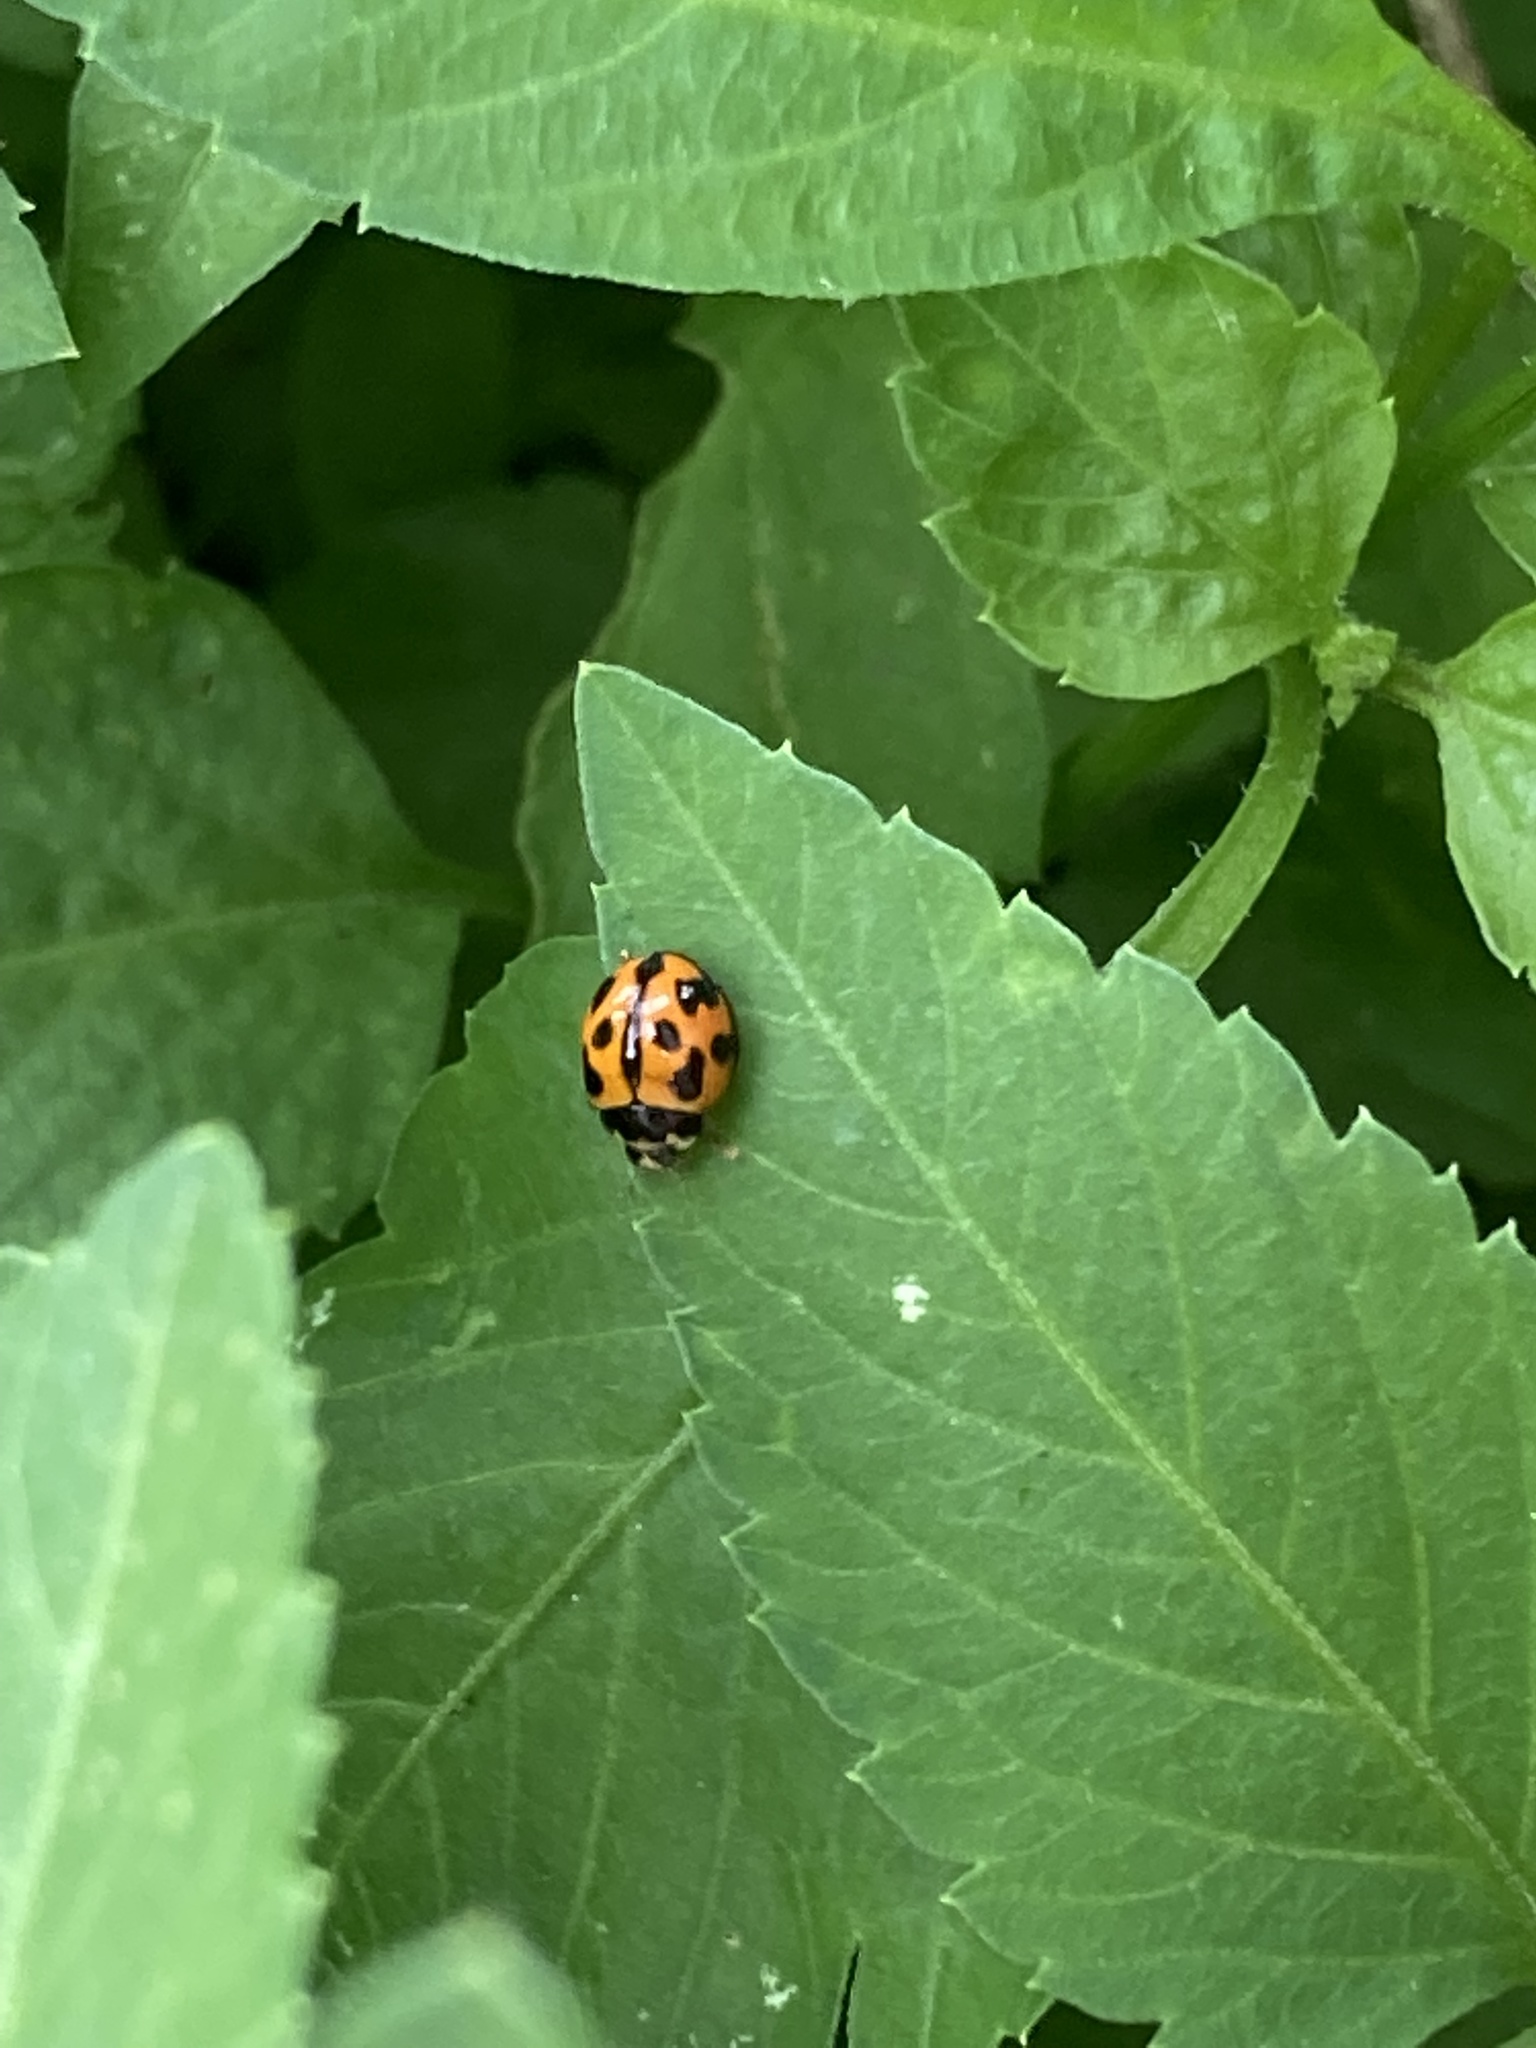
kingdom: Animalia
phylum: Arthropoda
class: Insecta
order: Coleoptera
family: Coccinellidae
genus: Coelophora
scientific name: Coelophora inaequalis
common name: Common australian lady beetle
